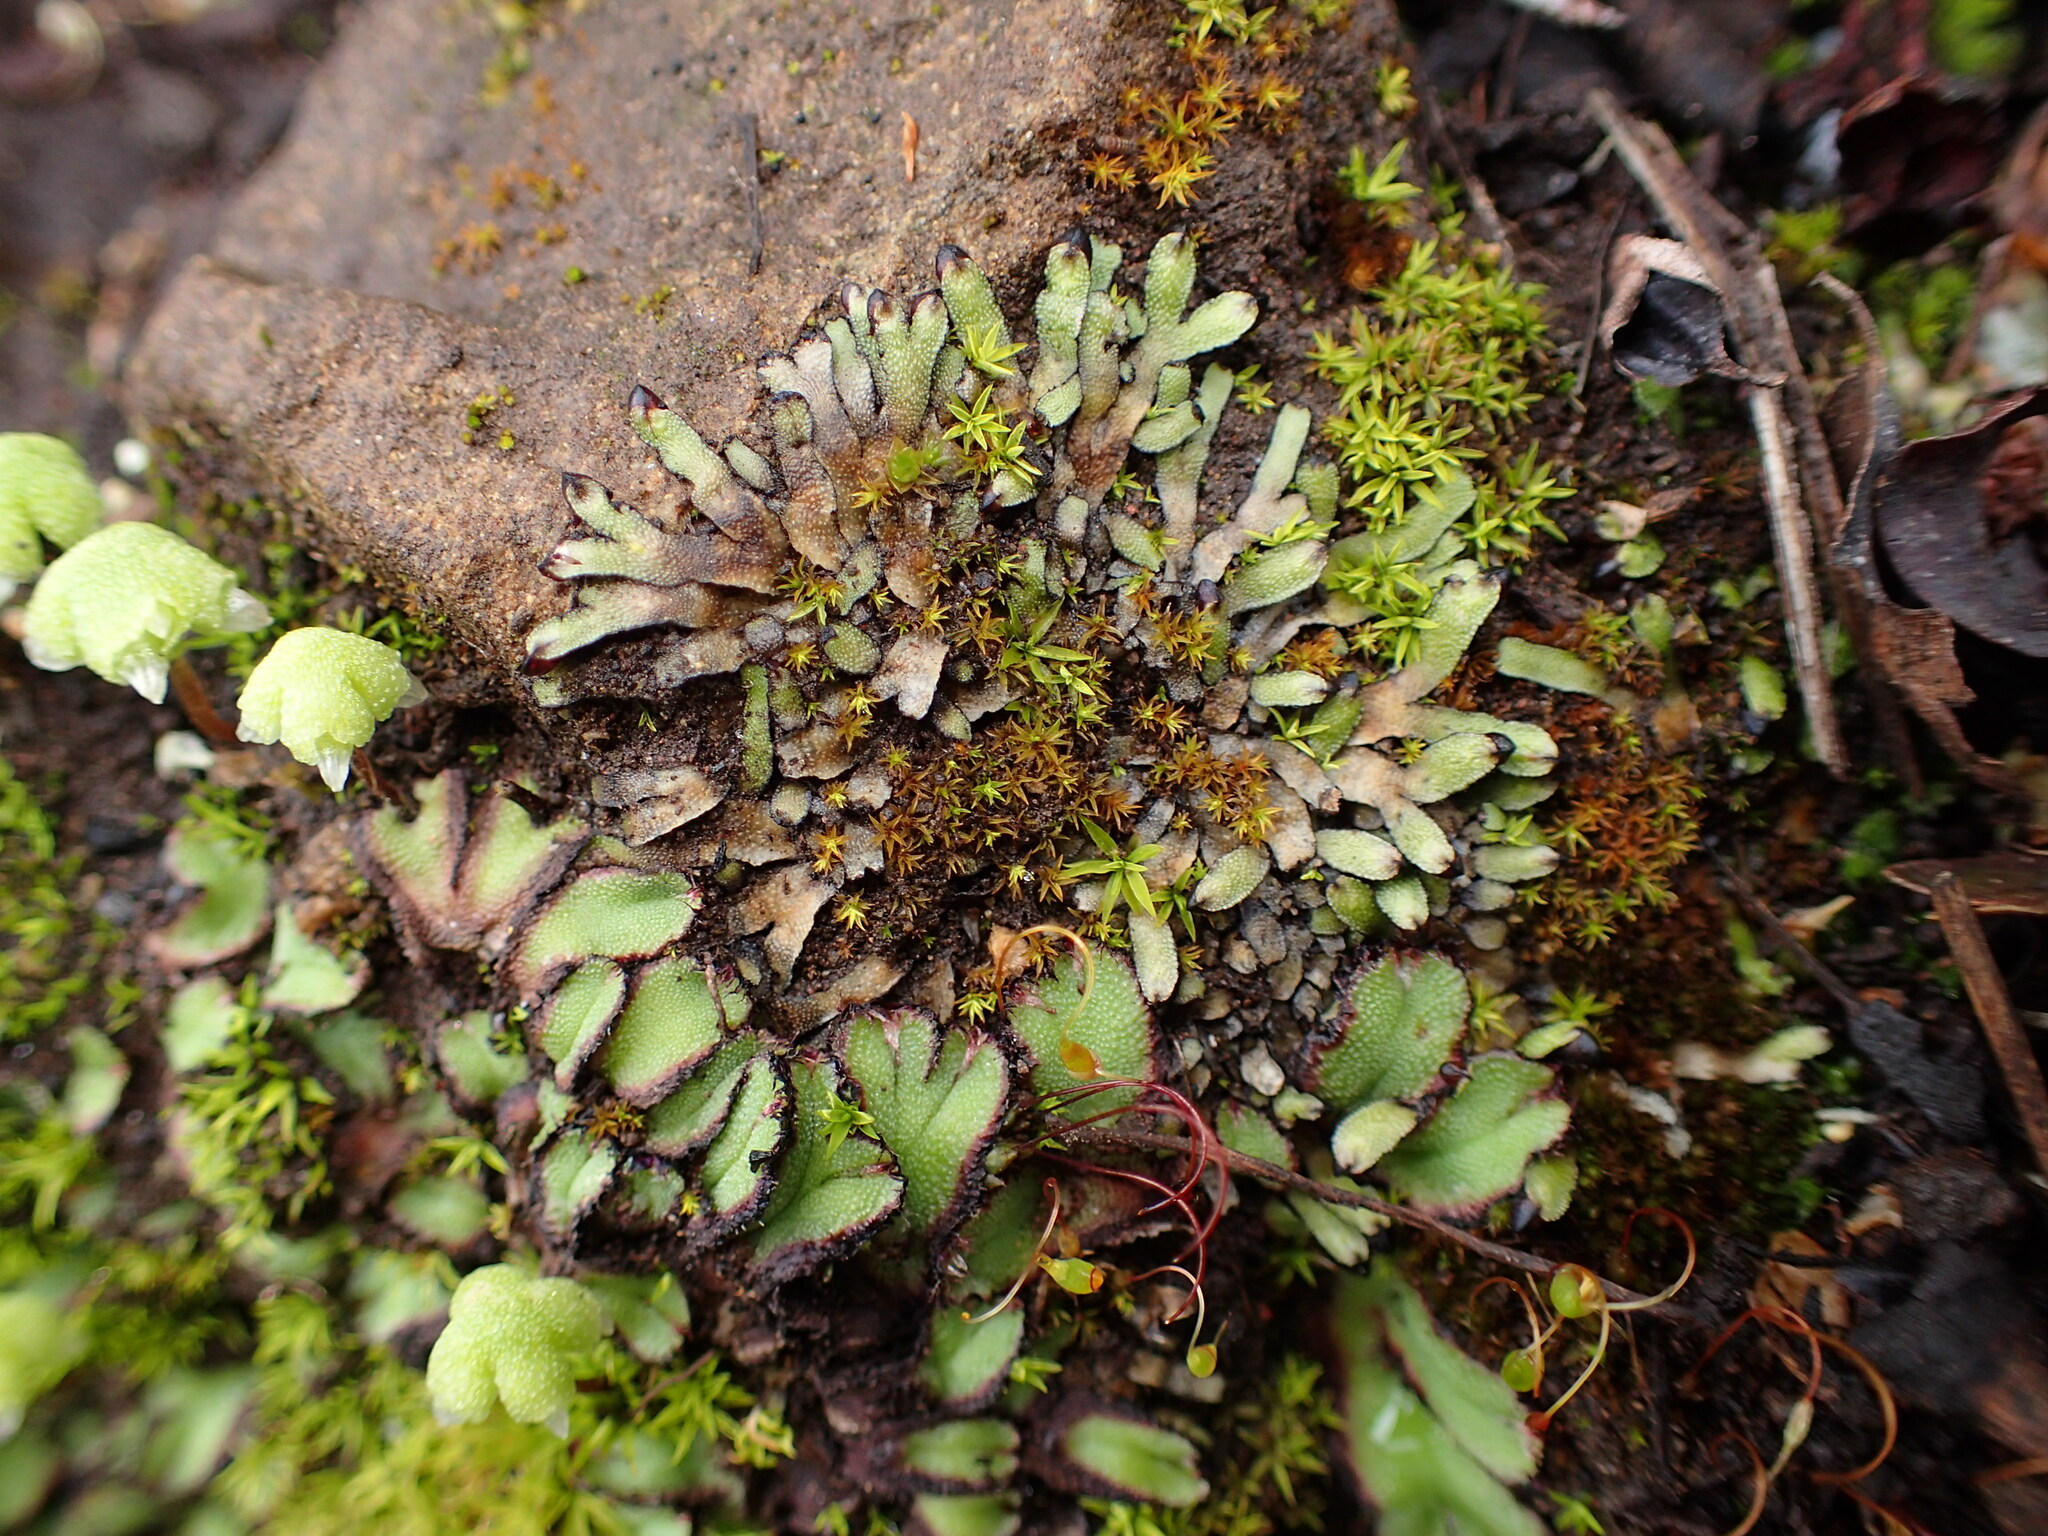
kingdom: Plantae
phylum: Marchantiophyta
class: Marchantiopsida
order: Marchantiales
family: Targioniaceae
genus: Targionia
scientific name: Targionia hypophylla
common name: Orobus-seed liverwort
